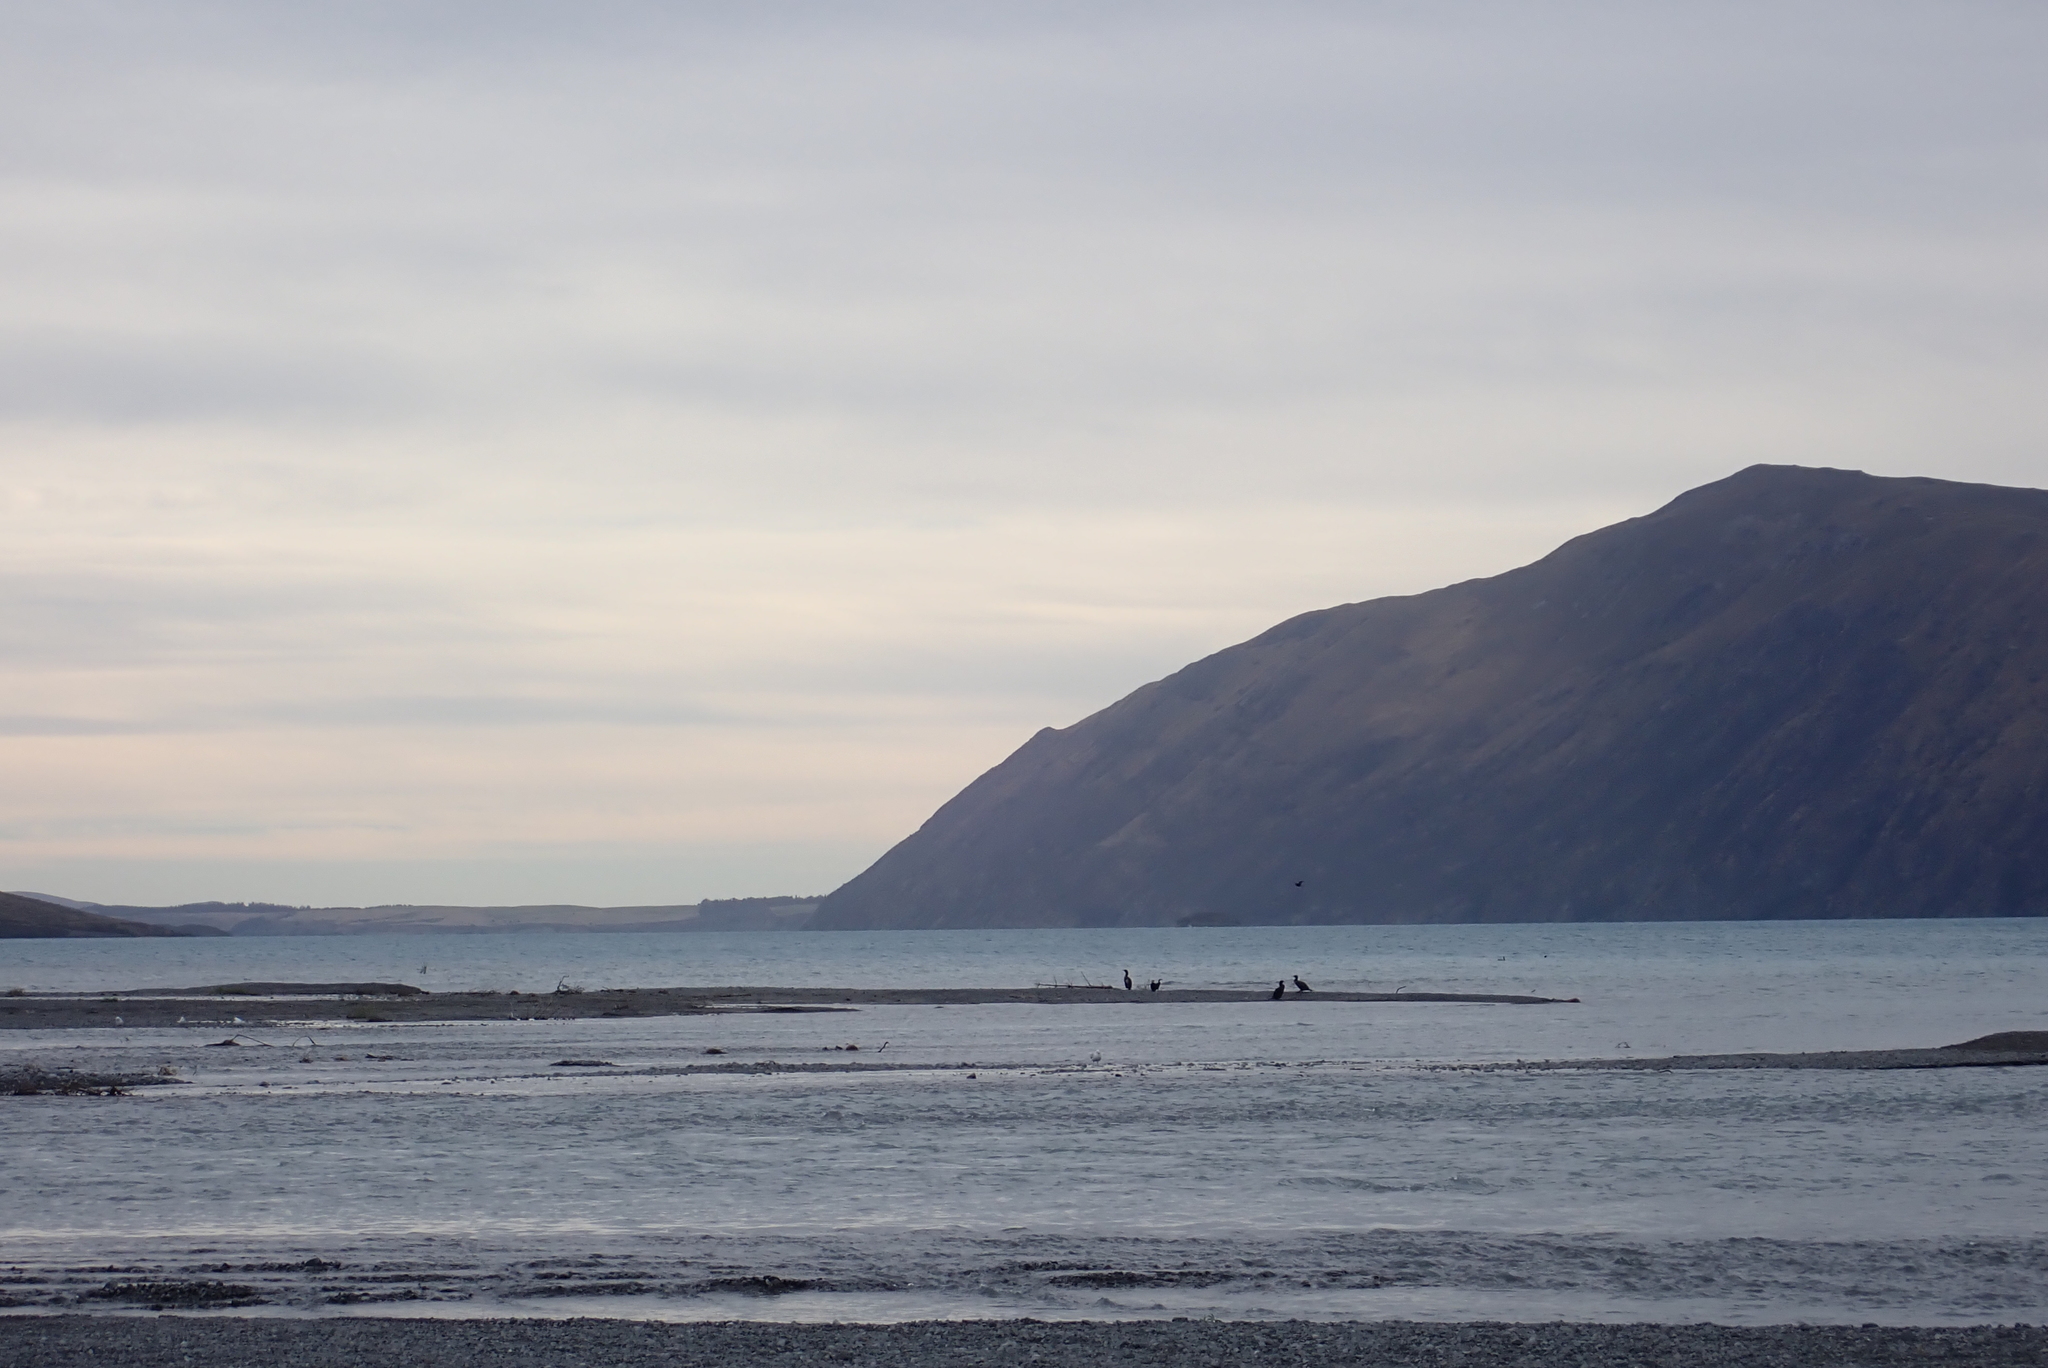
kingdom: Animalia
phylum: Chordata
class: Aves
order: Suliformes
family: Phalacrocoracidae
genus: Phalacrocorax
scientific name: Phalacrocorax carbo
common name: Great cormorant
